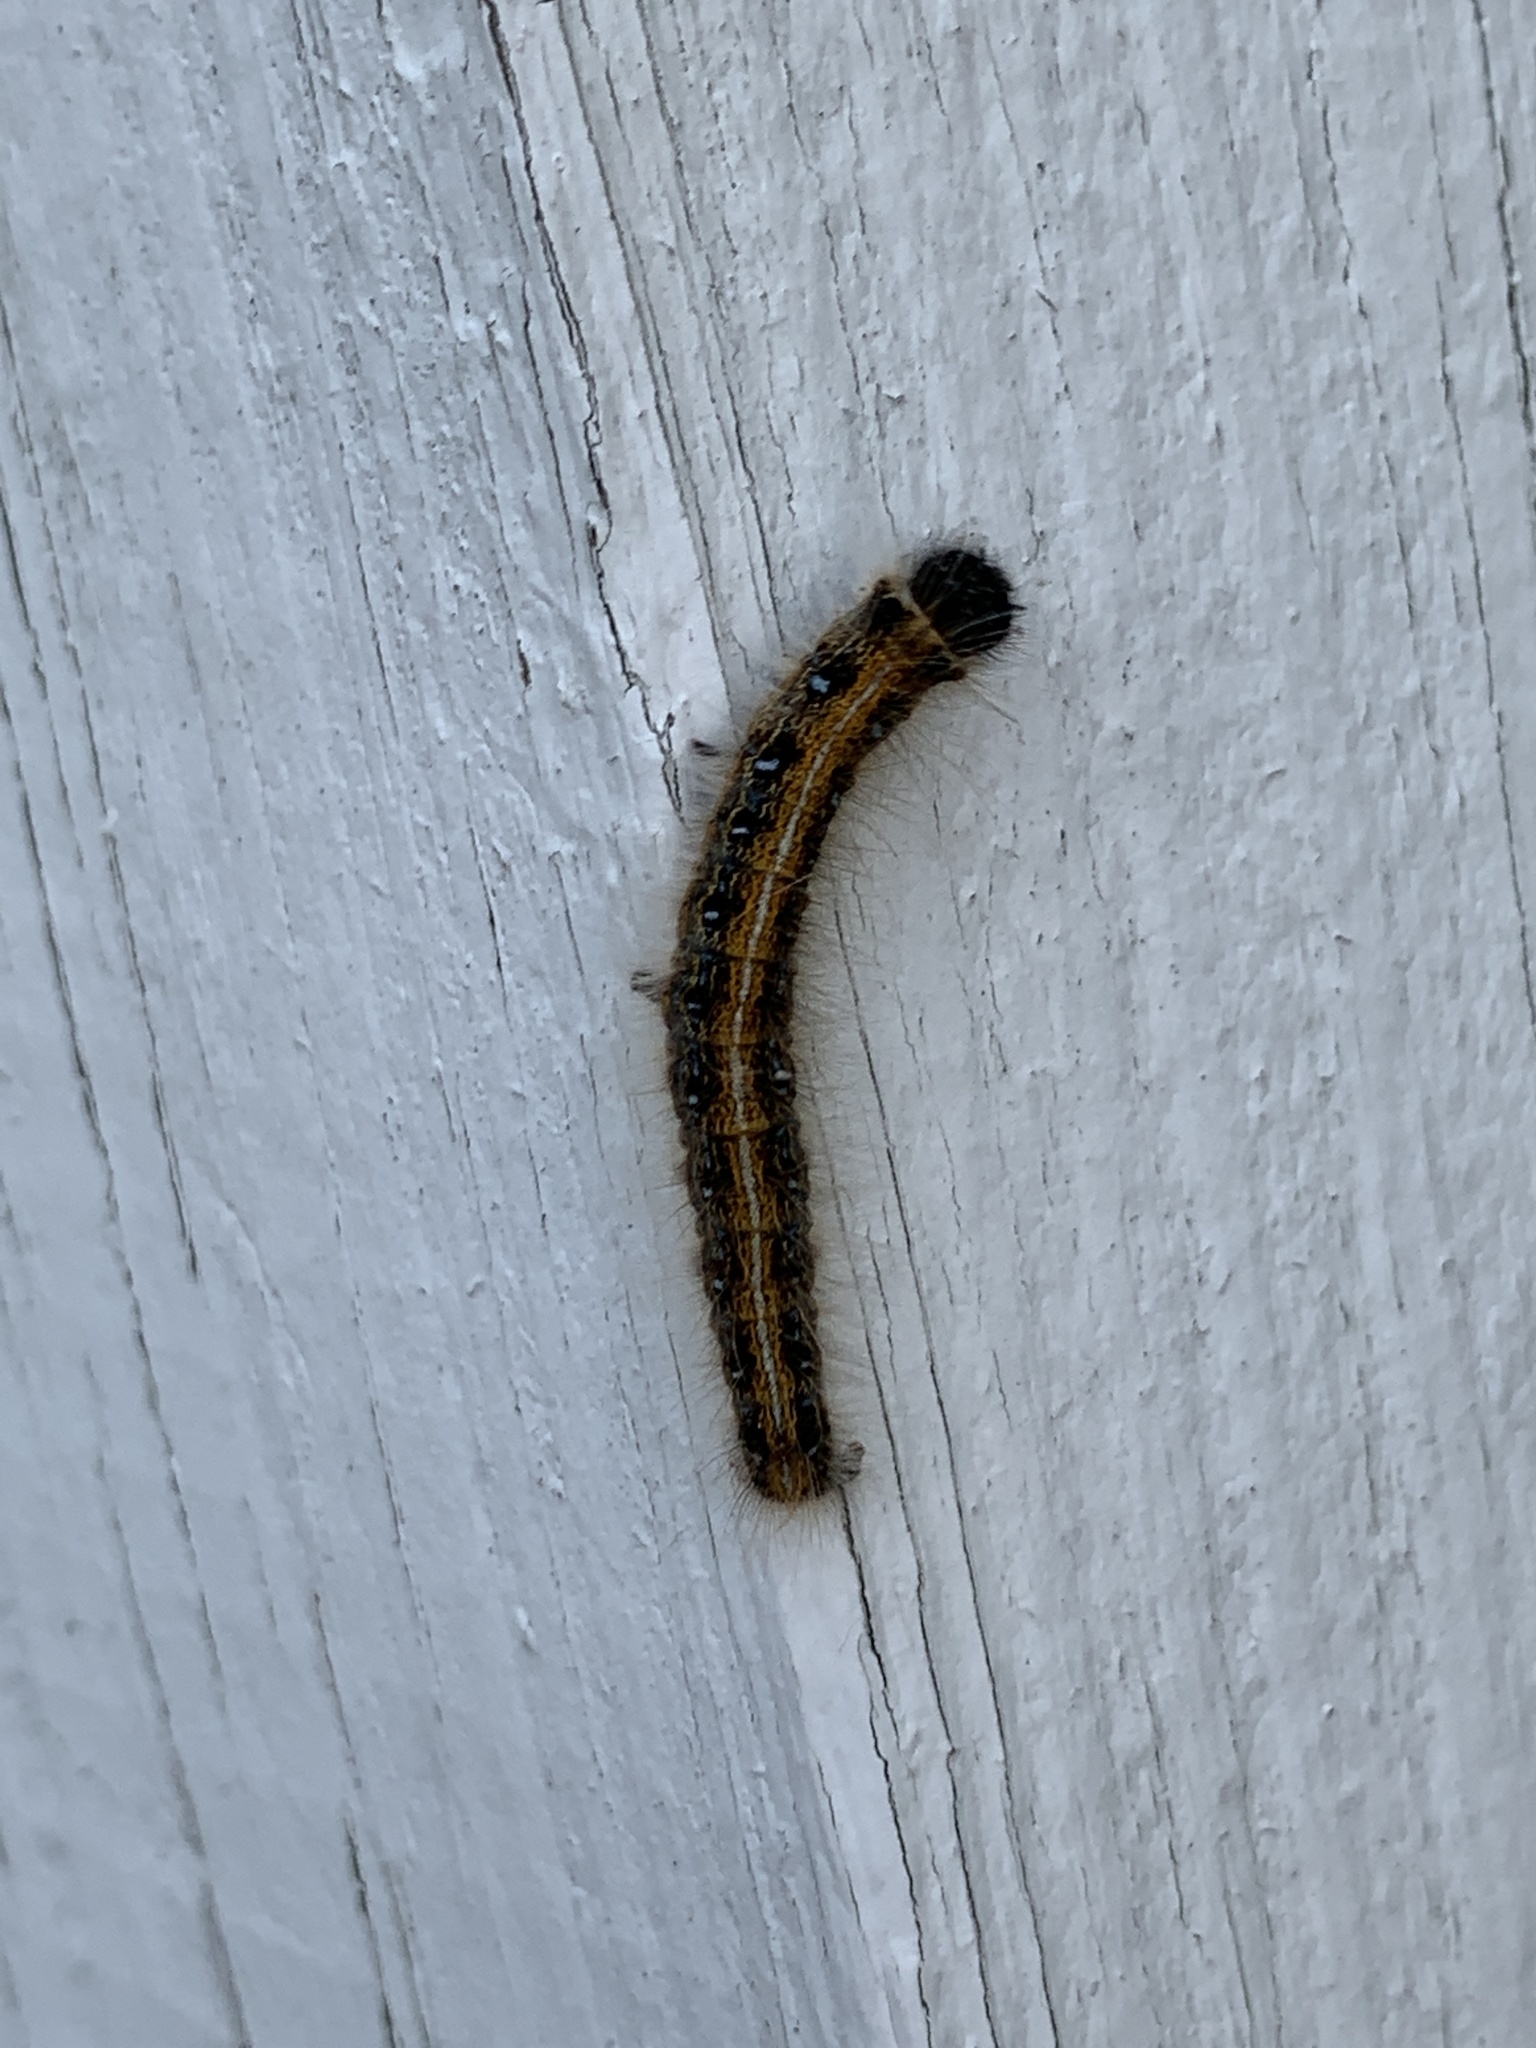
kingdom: Animalia
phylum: Arthropoda
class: Insecta
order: Lepidoptera
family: Lasiocampidae
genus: Malacosoma
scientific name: Malacosoma americana
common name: Eastern tent caterpillar moth
